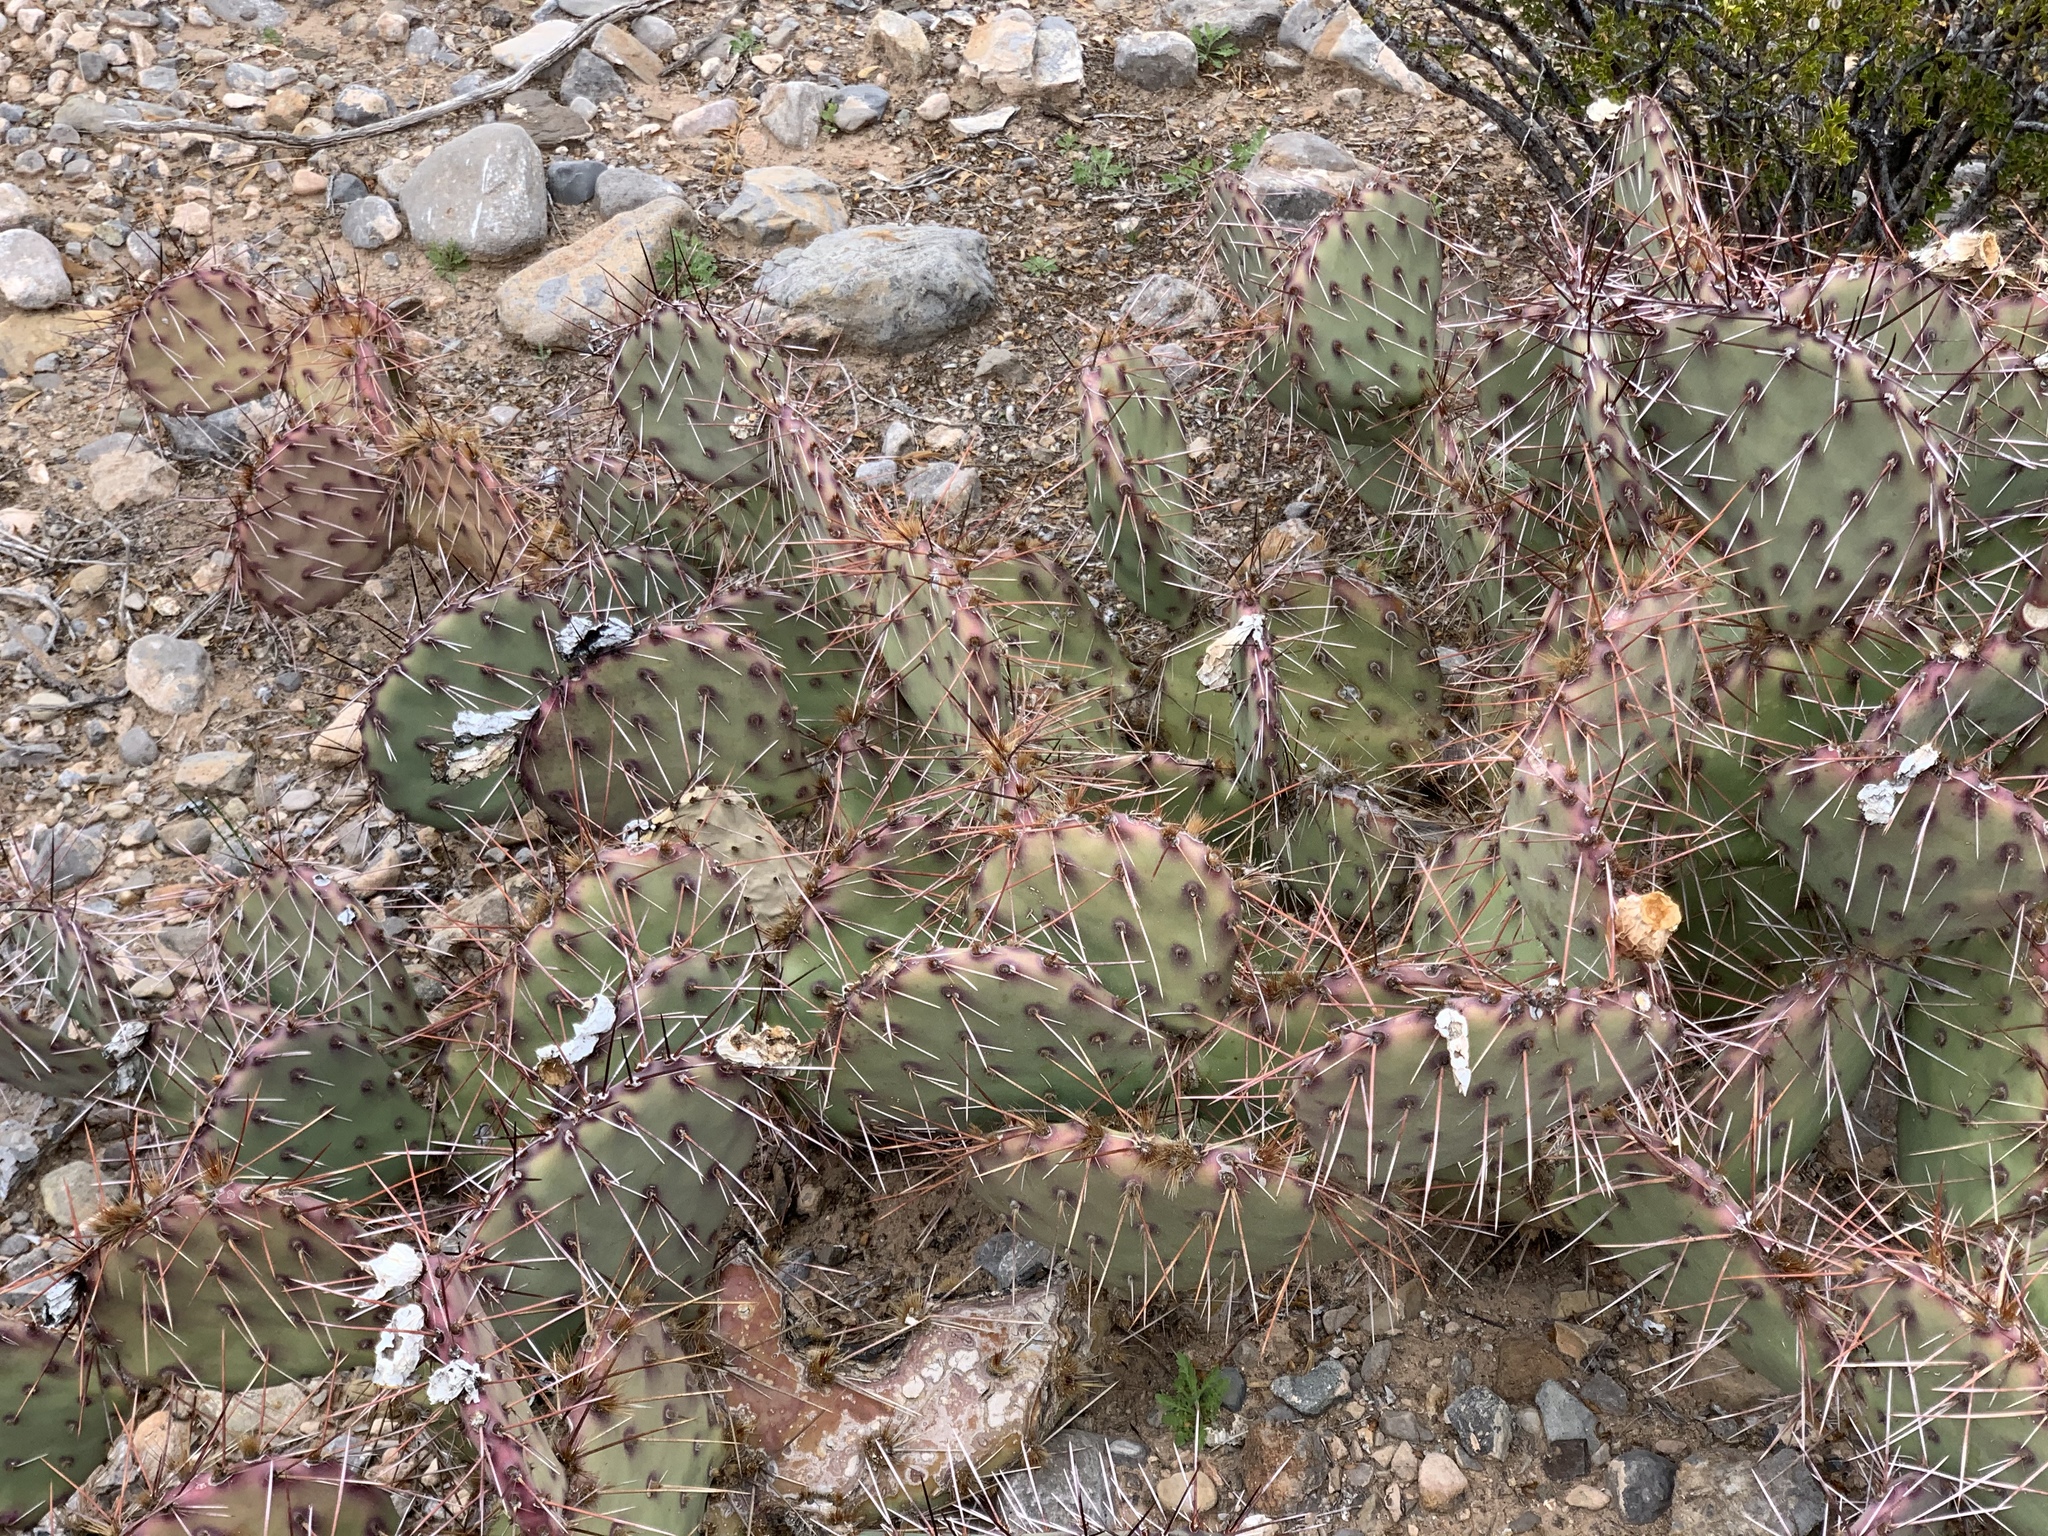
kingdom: Plantae
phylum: Tracheophyta
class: Magnoliopsida
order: Caryophyllales
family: Cactaceae
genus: Opuntia
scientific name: Opuntia macrocentra
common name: Purple prickly-pear
